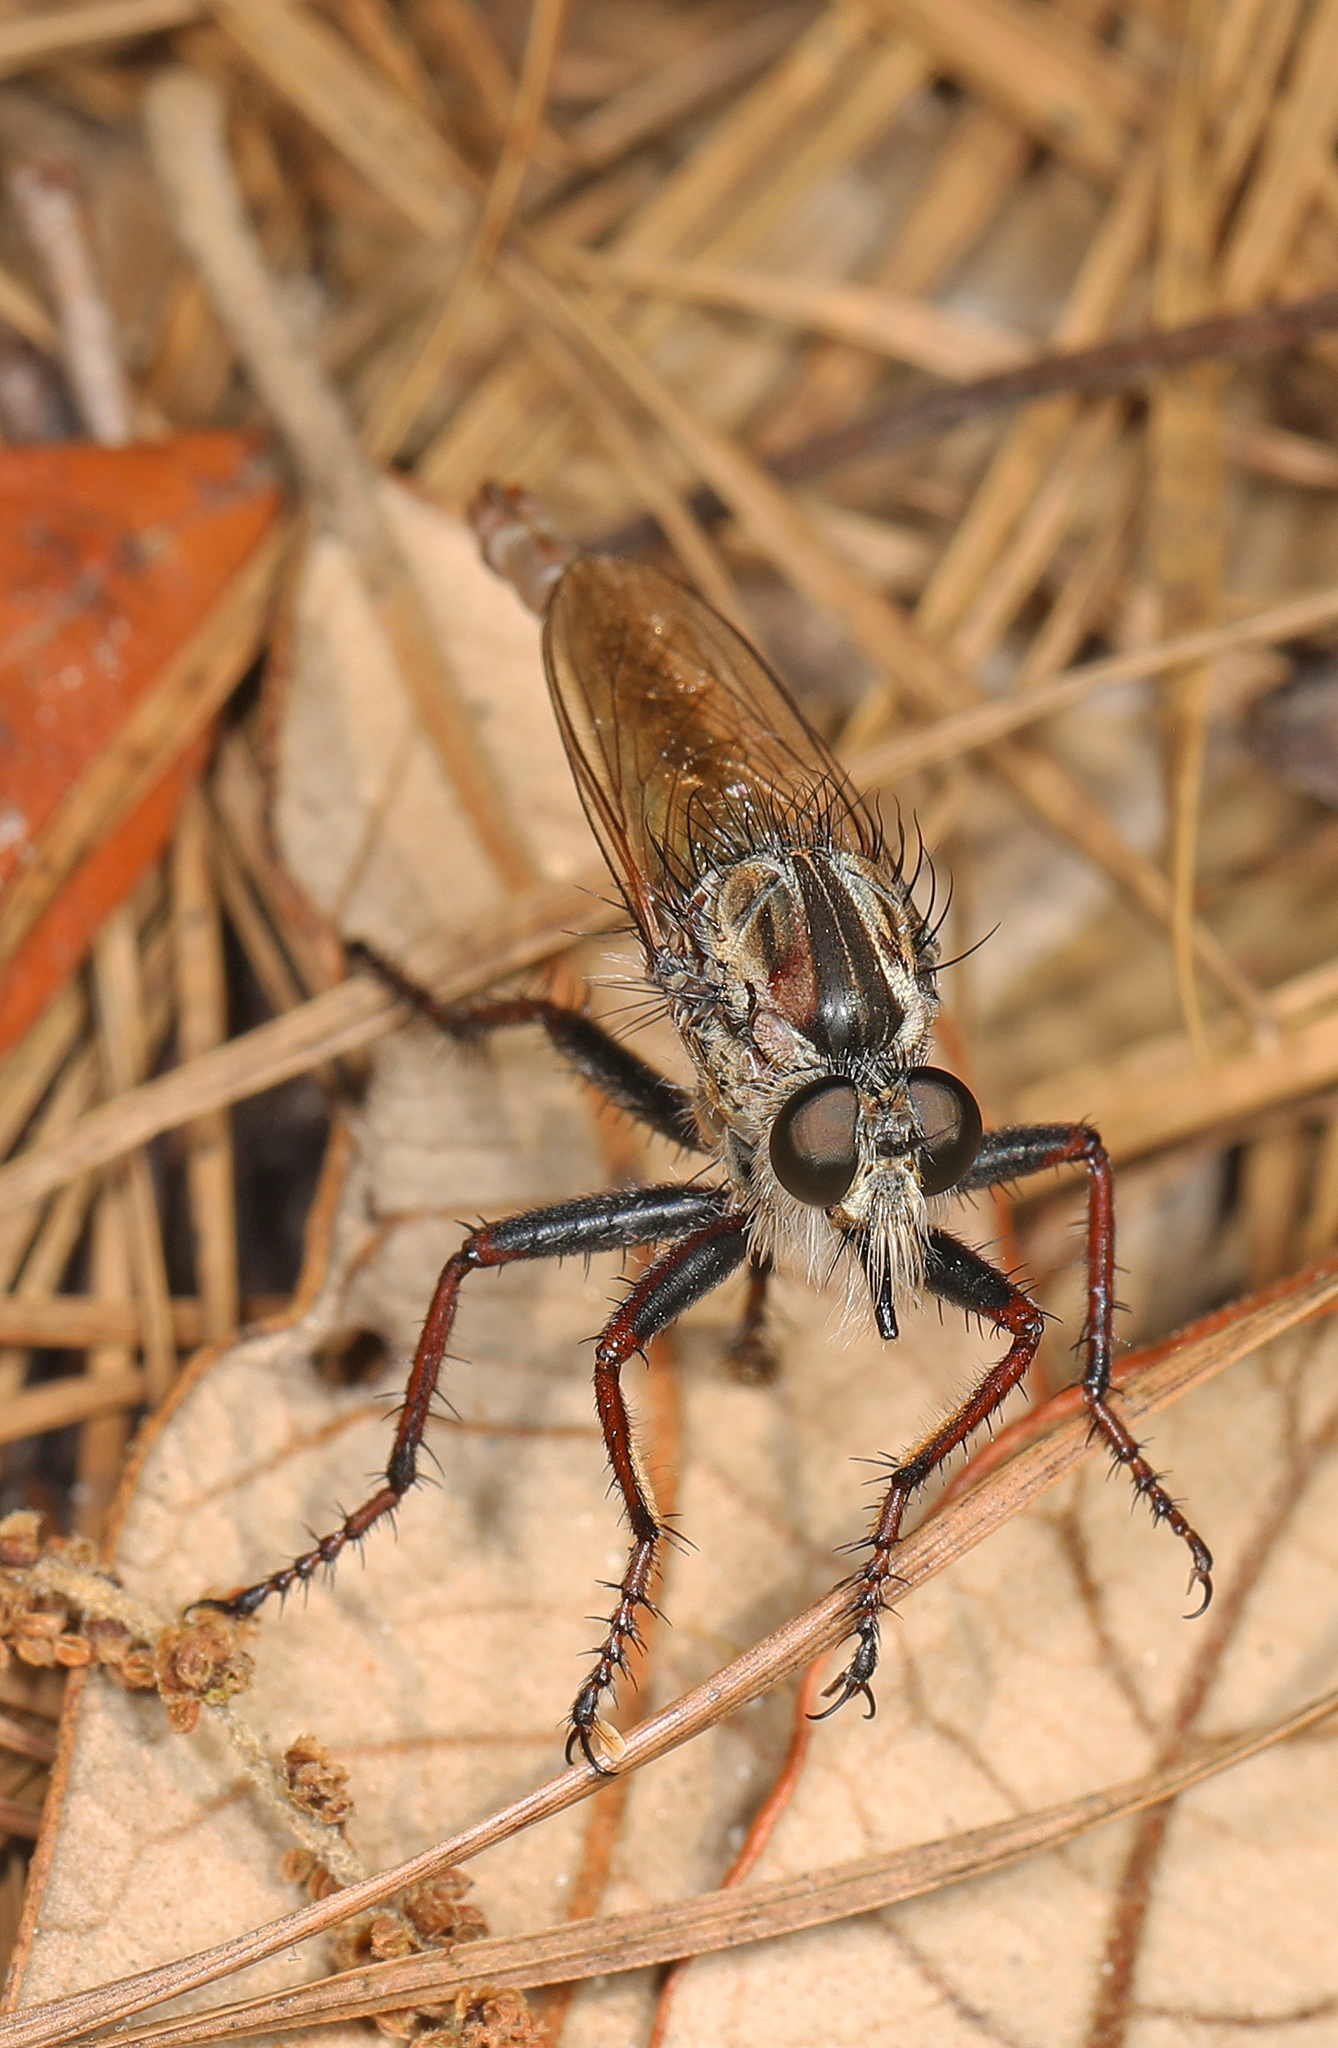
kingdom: Animalia
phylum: Arthropoda
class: Insecta
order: Diptera
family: Asilidae
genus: Proctacanthus
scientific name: Proctacanthus brevipennis
